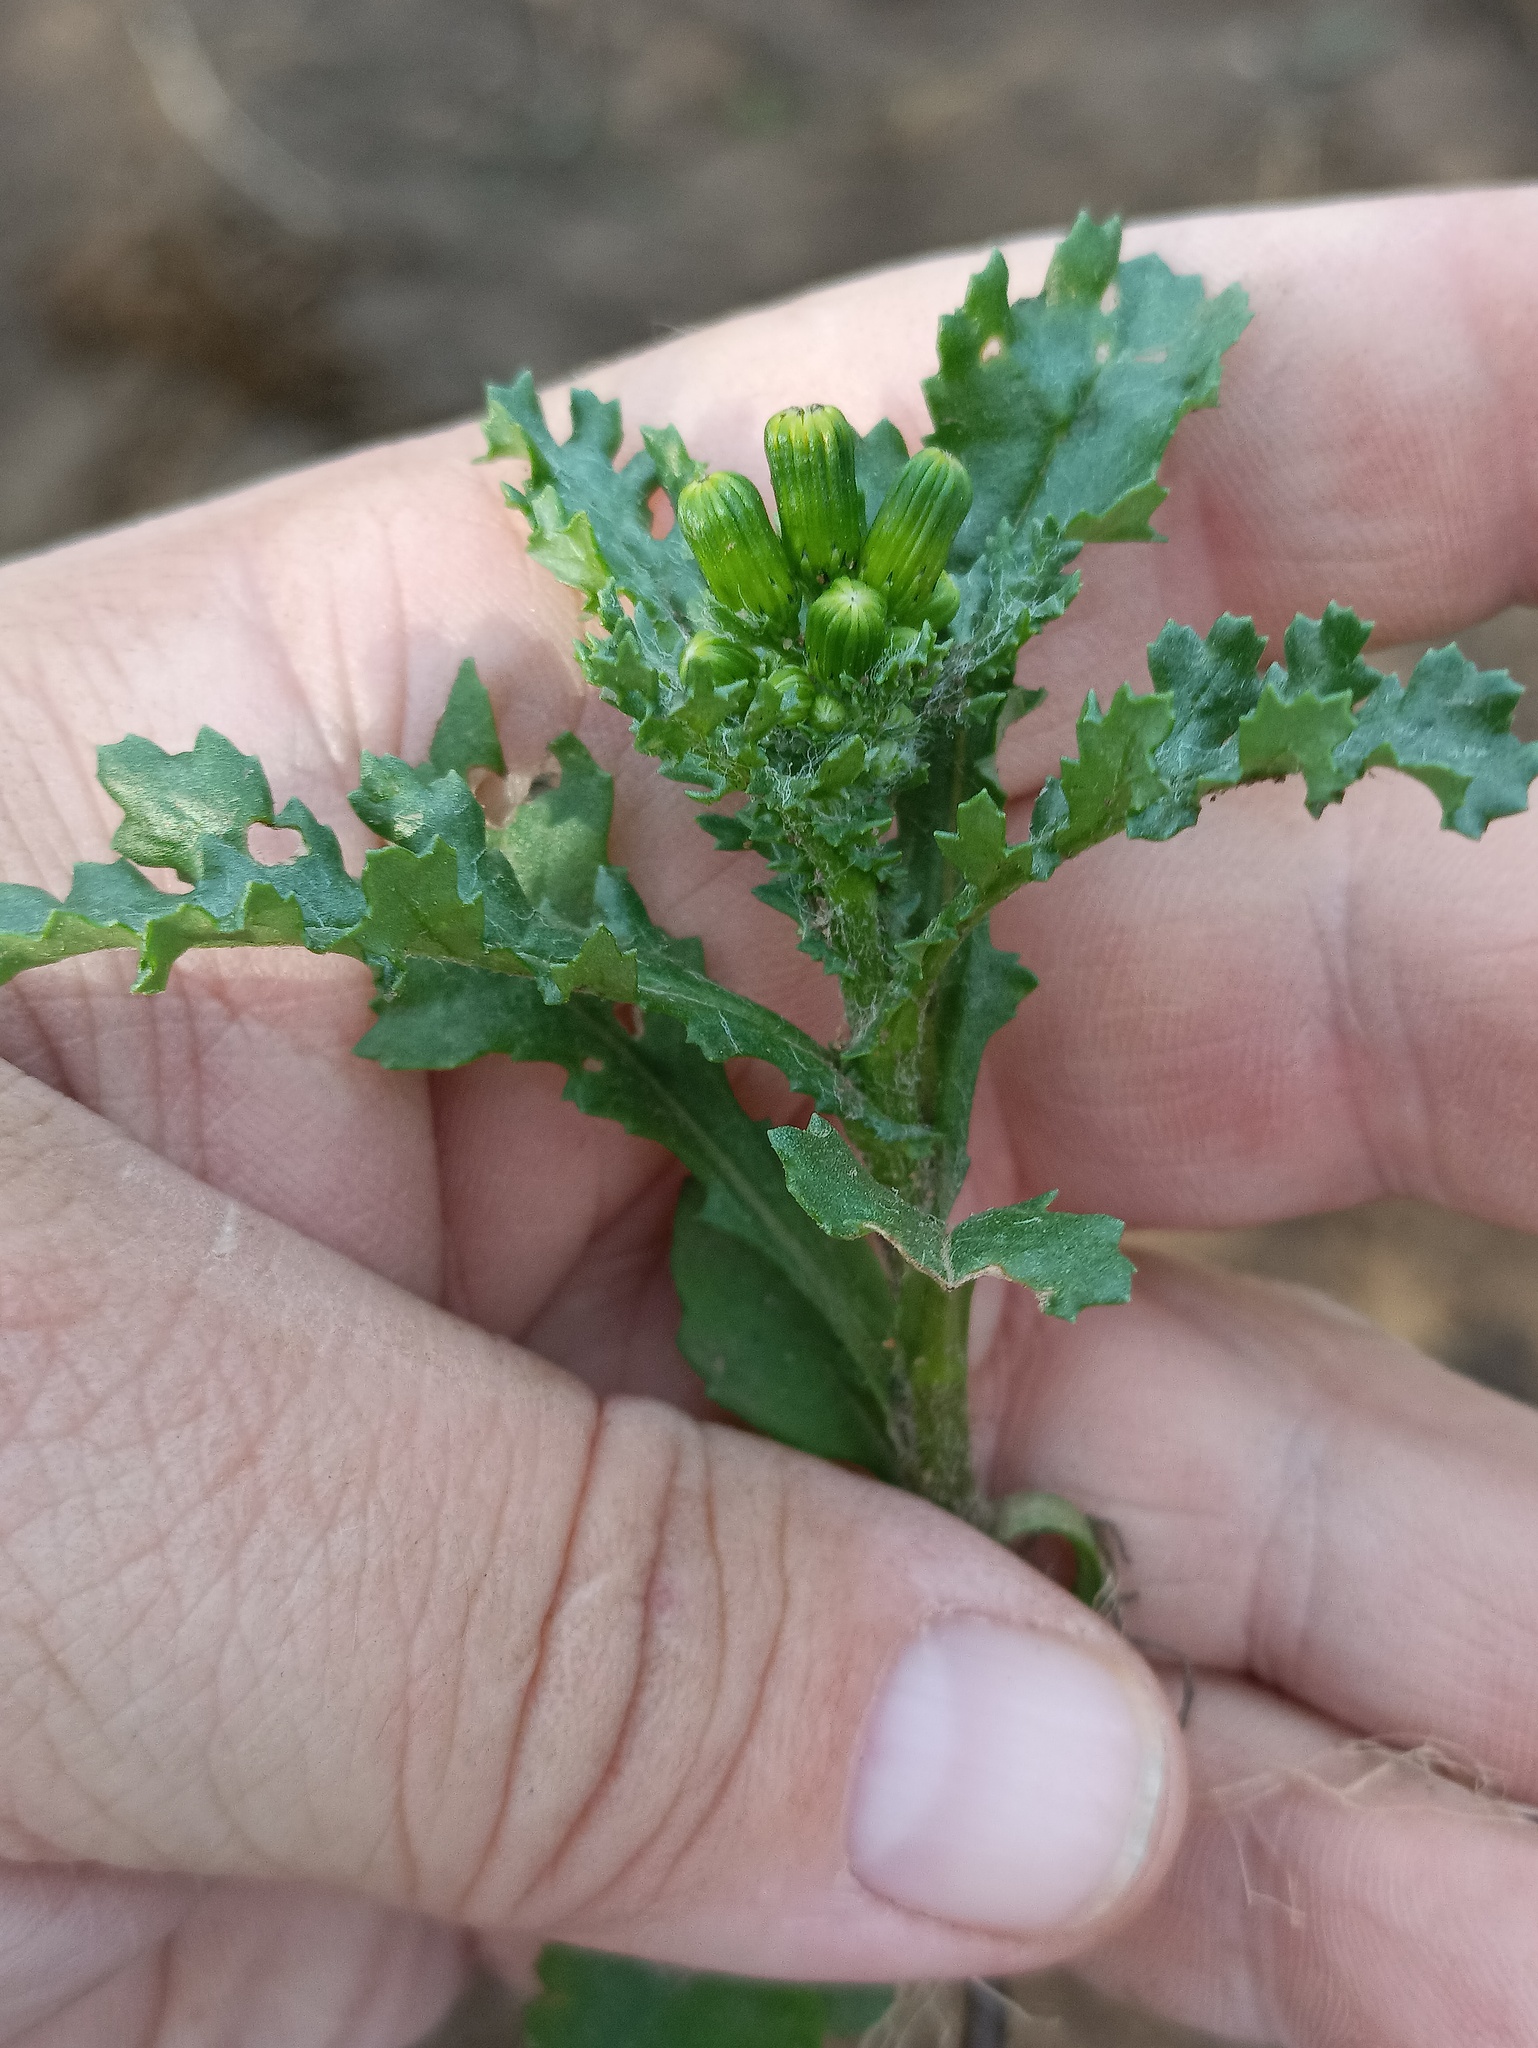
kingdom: Plantae
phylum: Tracheophyta
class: Magnoliopsida
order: Asterales
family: Asteraceae
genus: Senecio
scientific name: Senecio vulgaris
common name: Old-man-in-the-spring
